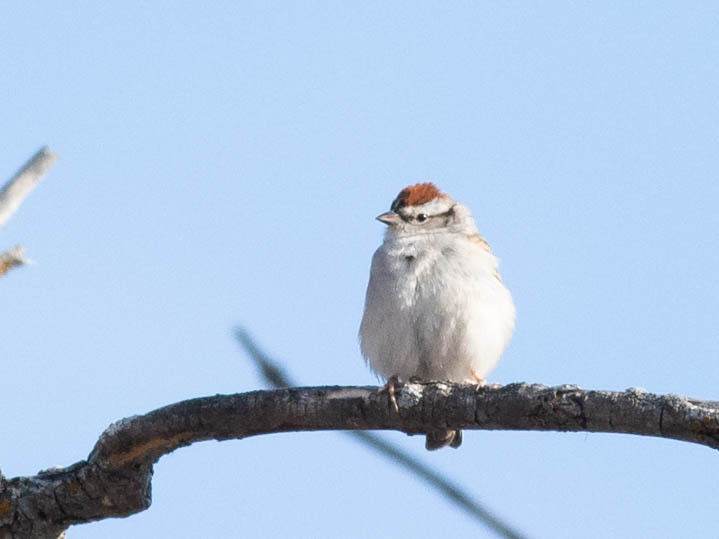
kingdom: Animalia
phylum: Chordata
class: Aves
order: Passeriformes
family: Passerellidae
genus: Spizella
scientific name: Spizella passerina
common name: Chipping sparrow
